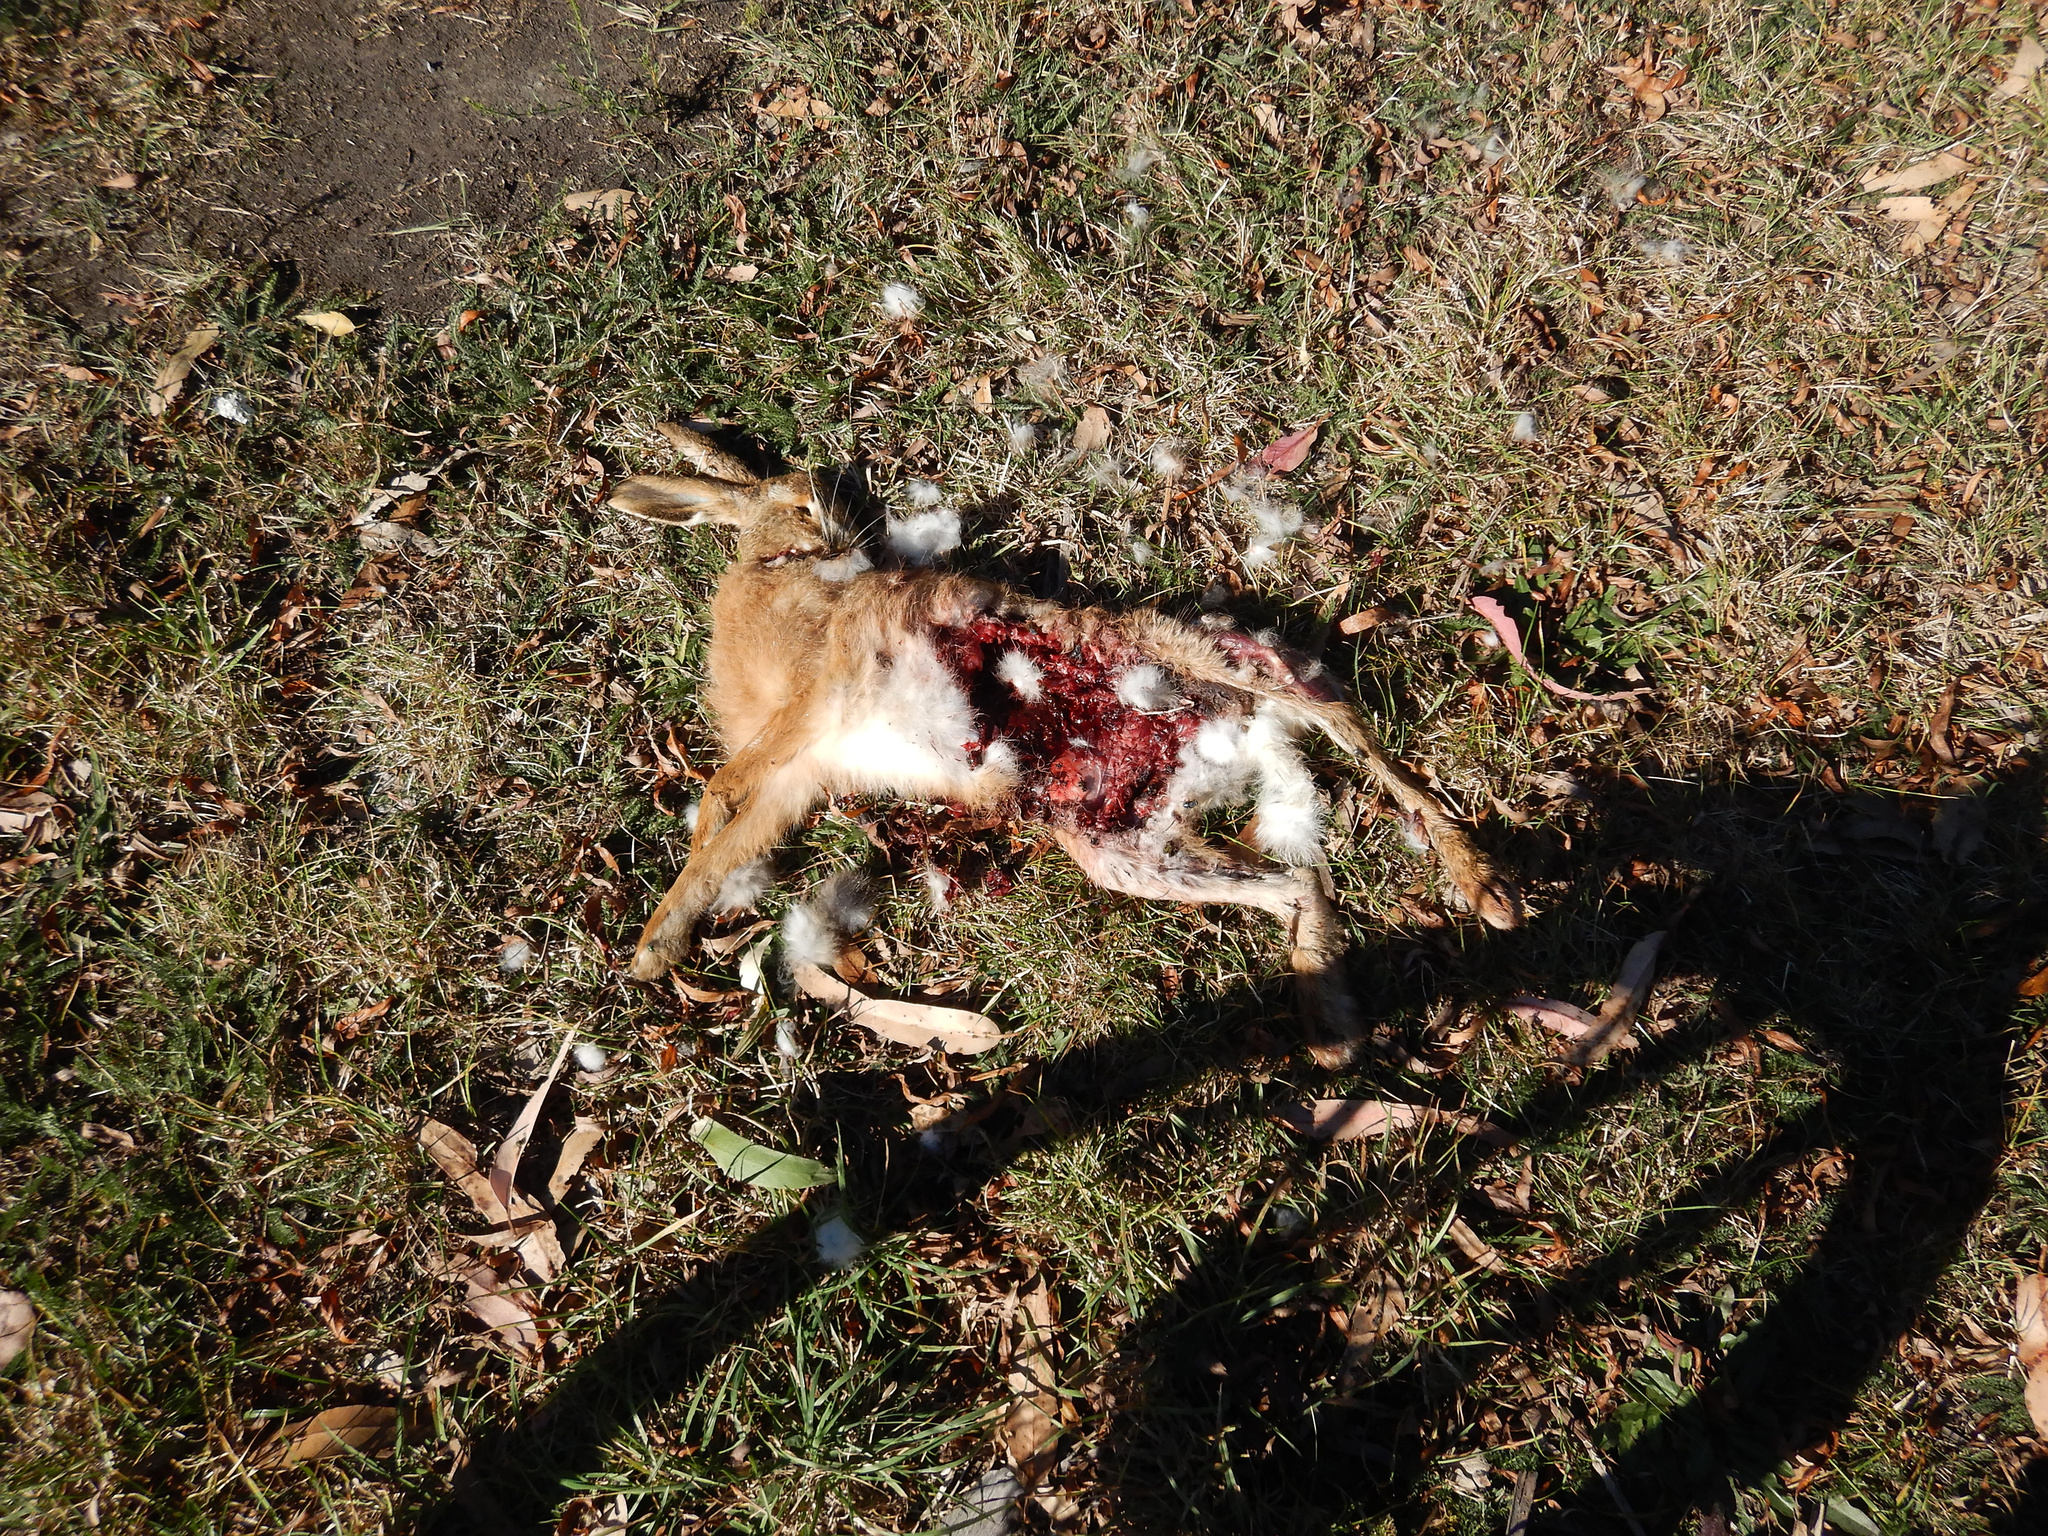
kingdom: Animalia
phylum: Chordata
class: Mammalia
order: Lagomorpha
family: Leporidae
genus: Lepus
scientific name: Lepus europaeus
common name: European hare
